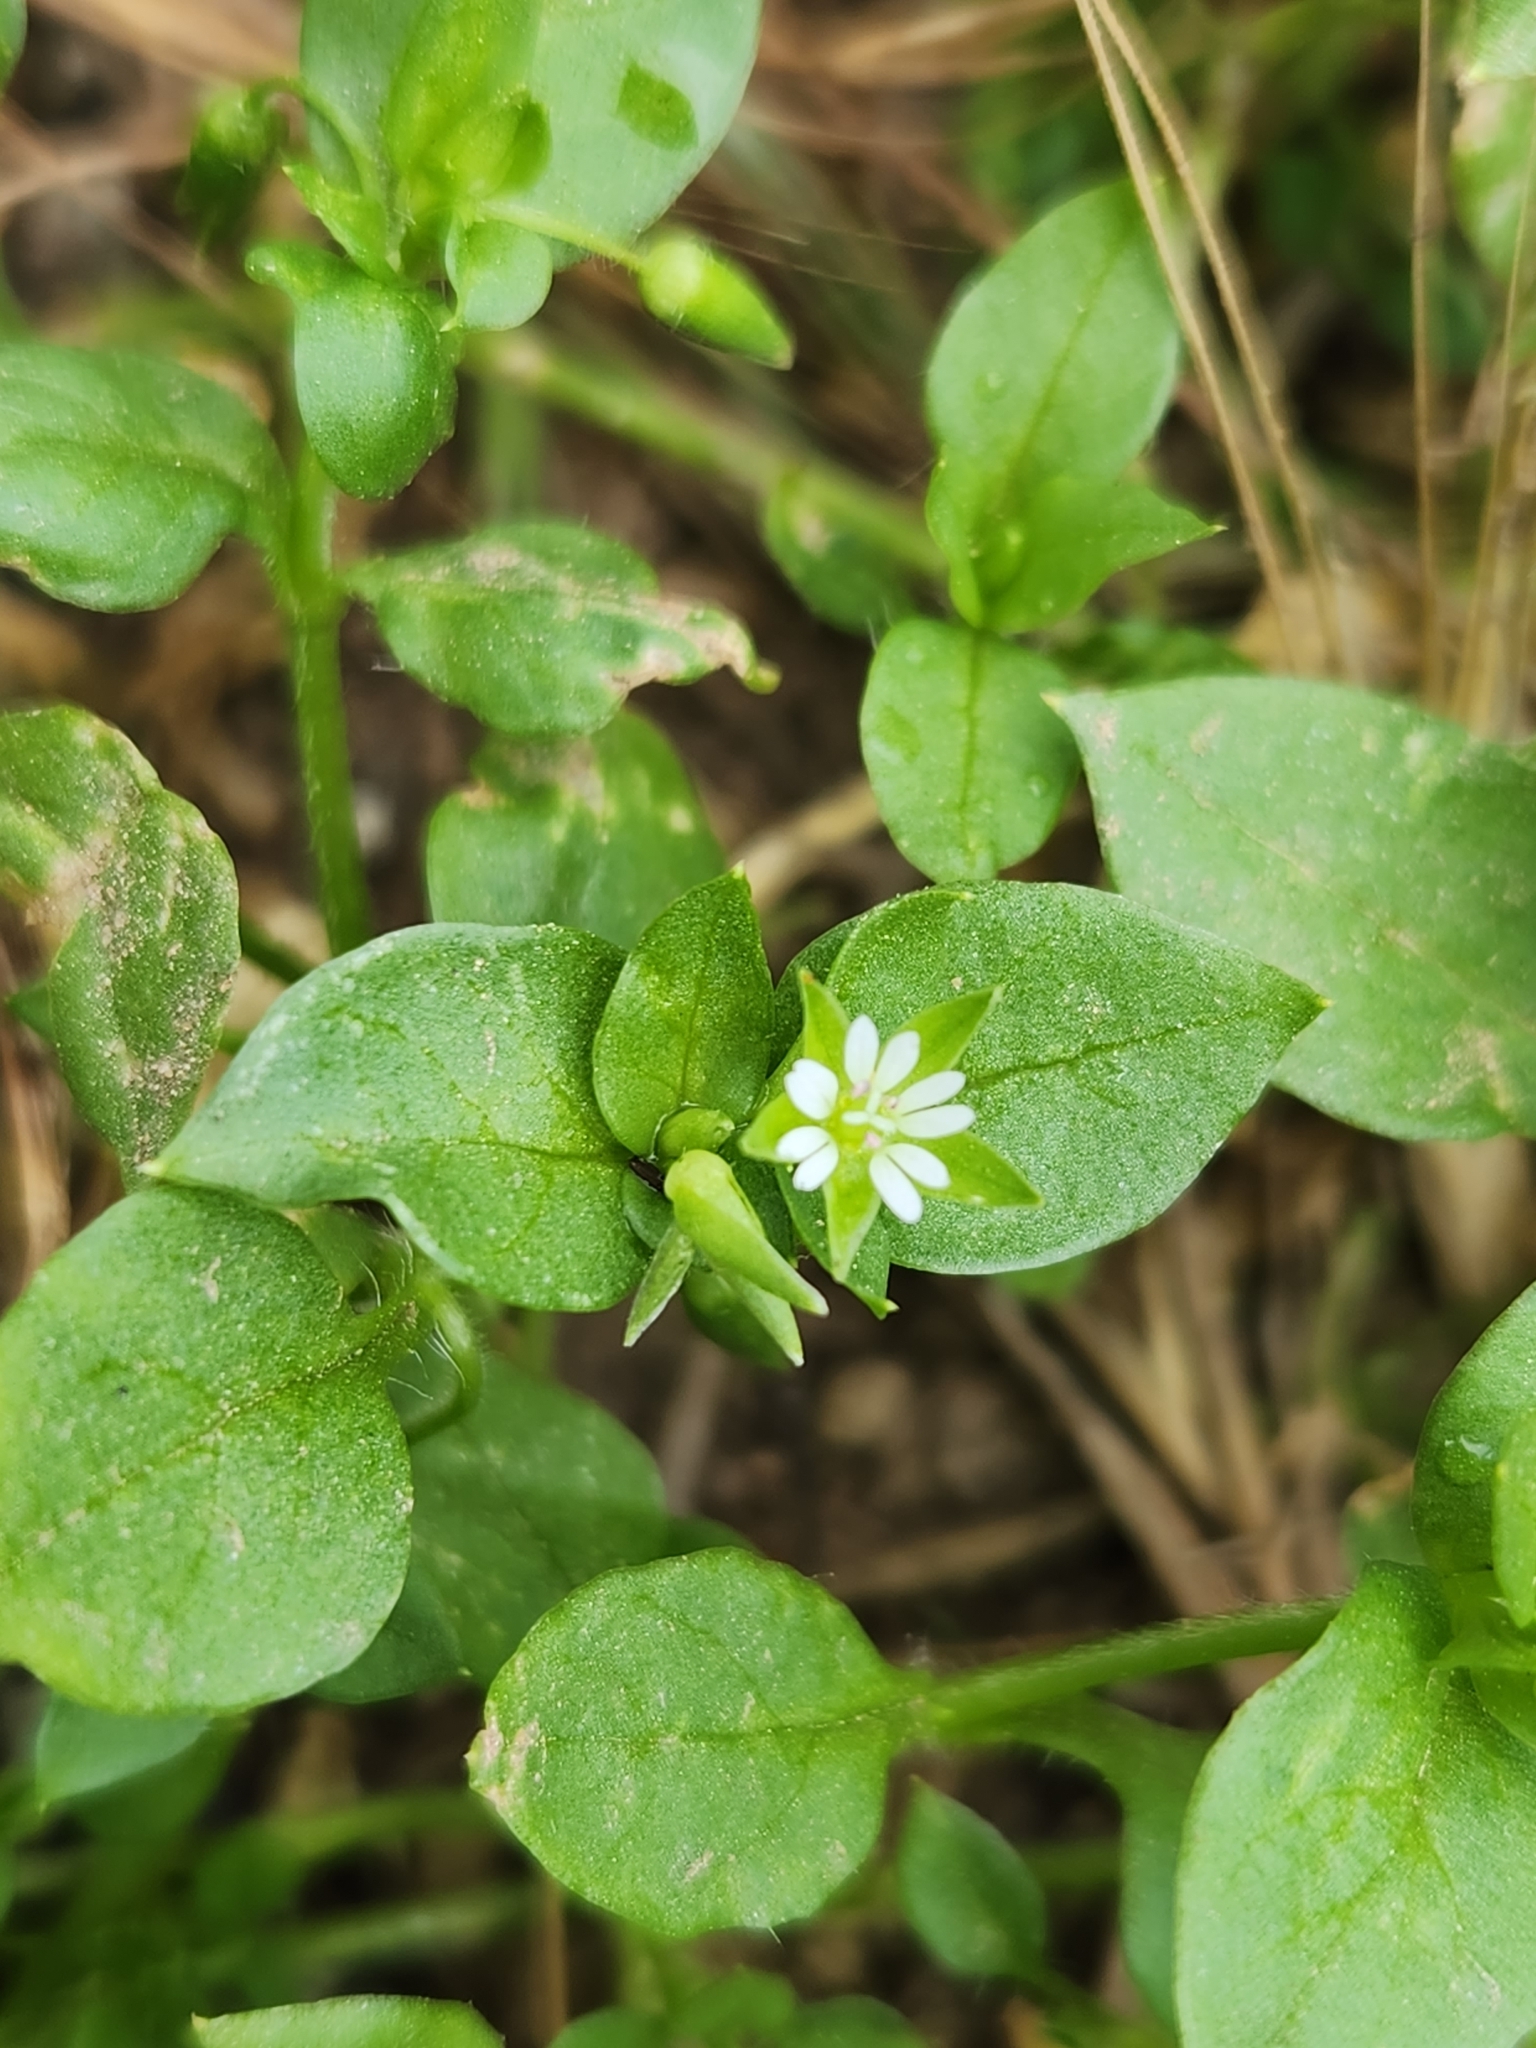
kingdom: Plantae
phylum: Tracheophyta
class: Magnoliopsida
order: Caryophyllales
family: Caryophyllaceae
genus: Stellaria
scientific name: Stellaria media
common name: Common chickweed
